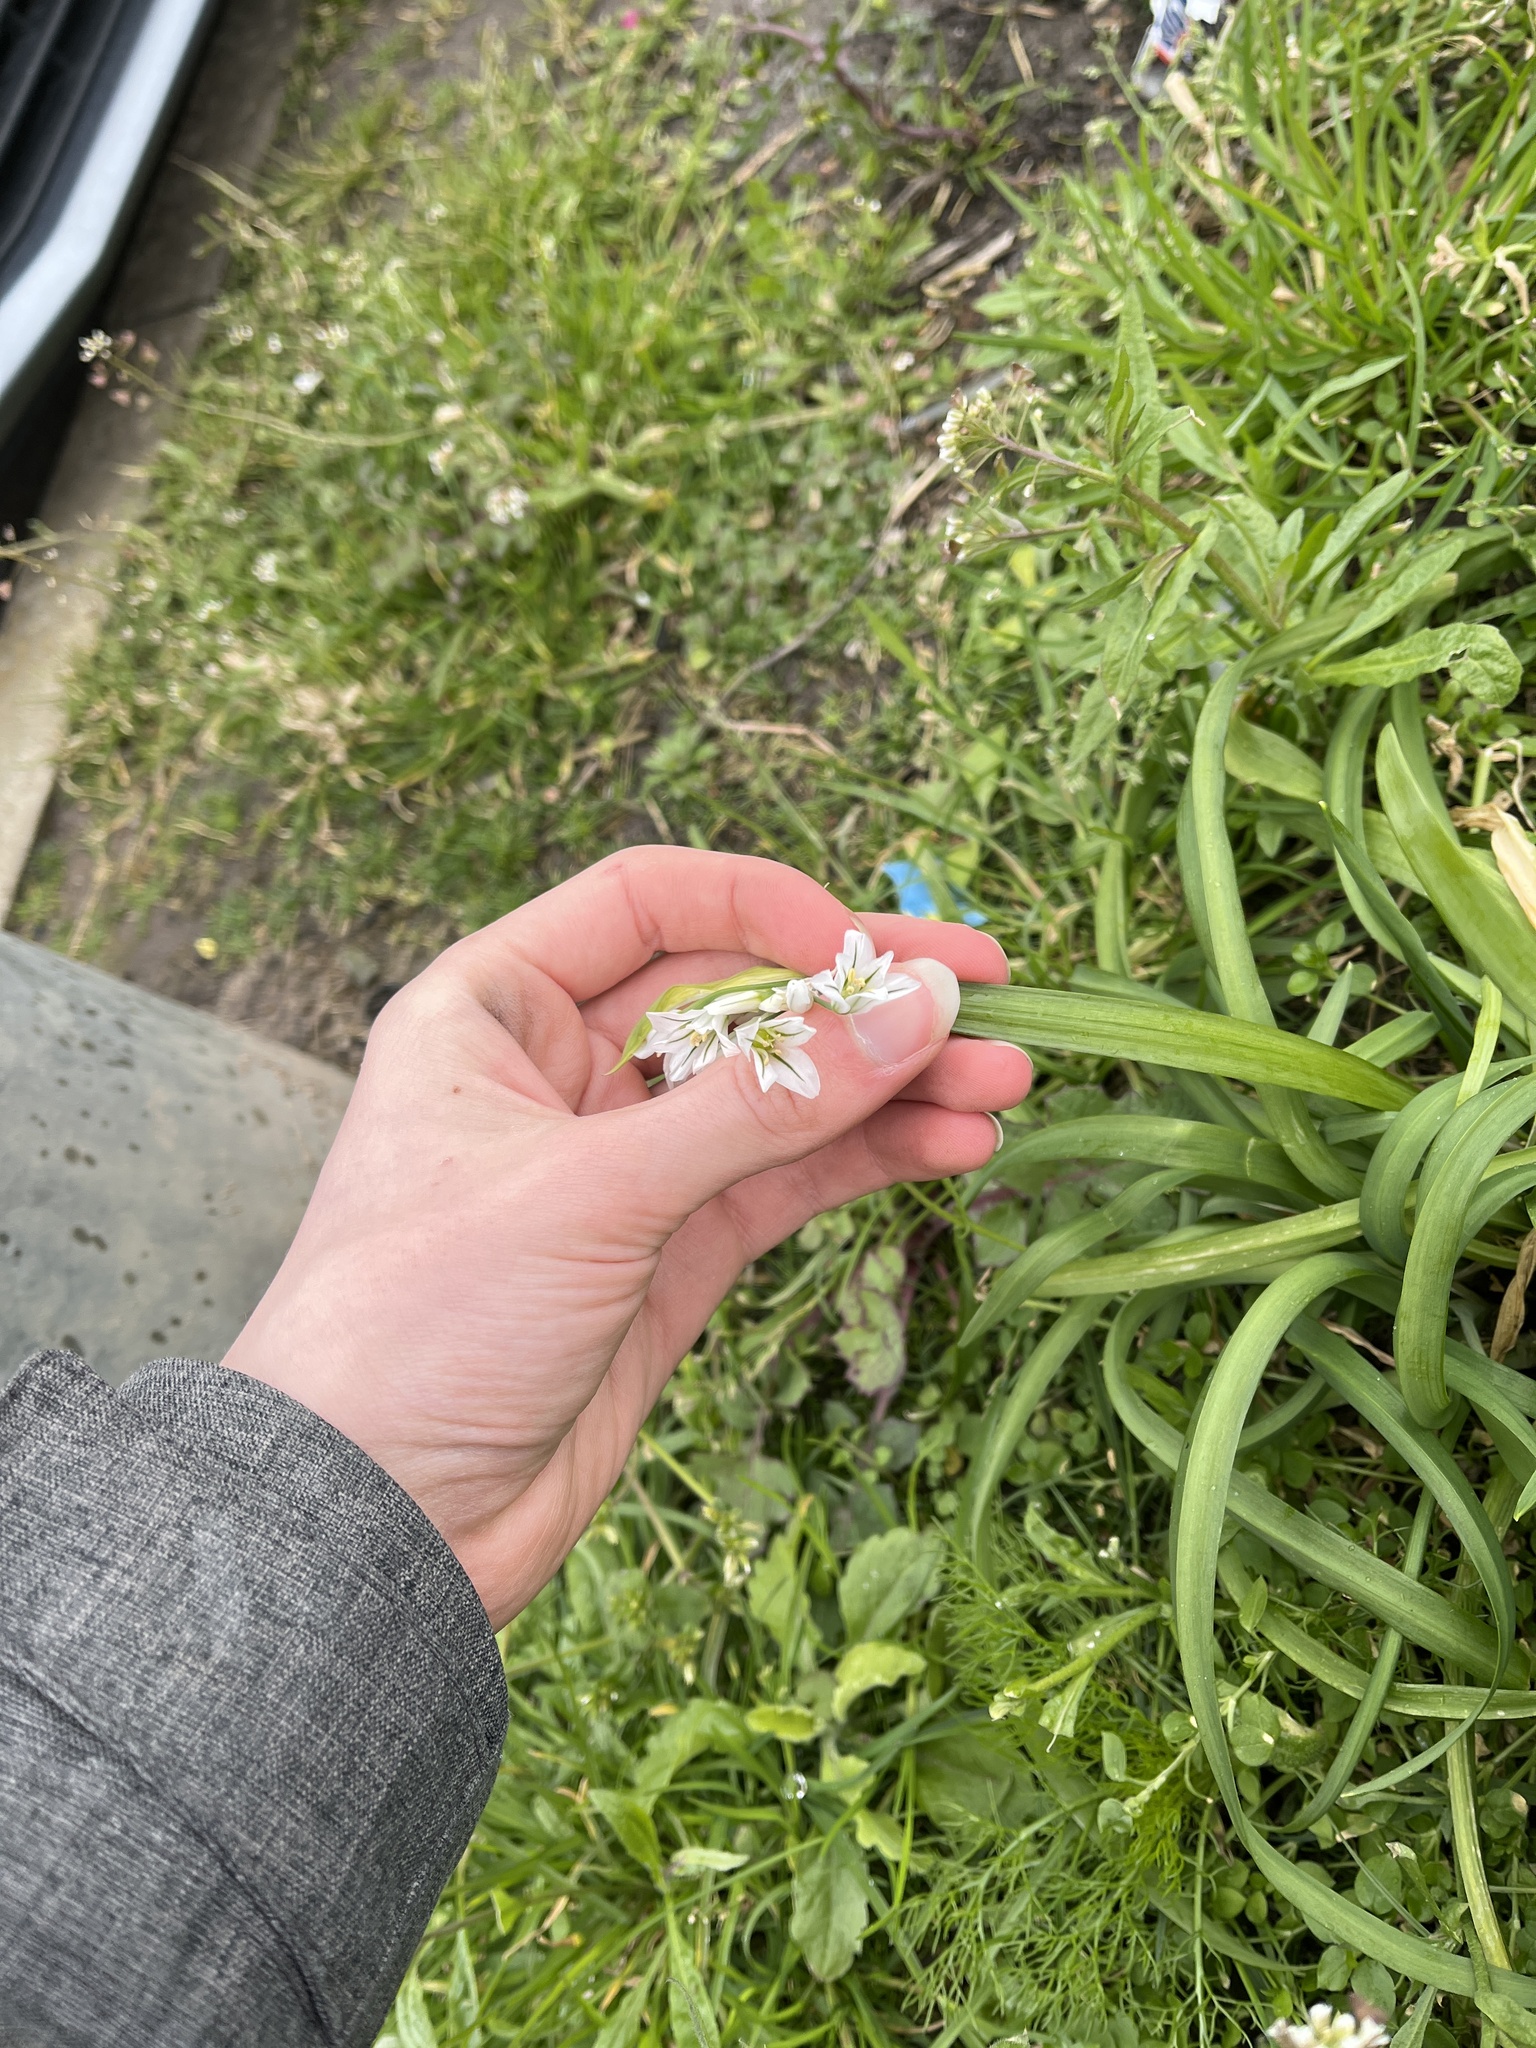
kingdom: Plantae
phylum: Tracheophyta
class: Liliopsida
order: Asparagales
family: Amaryllidaceae
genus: Allium
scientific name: Allium triquetrum
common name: Three-cornered garlic
